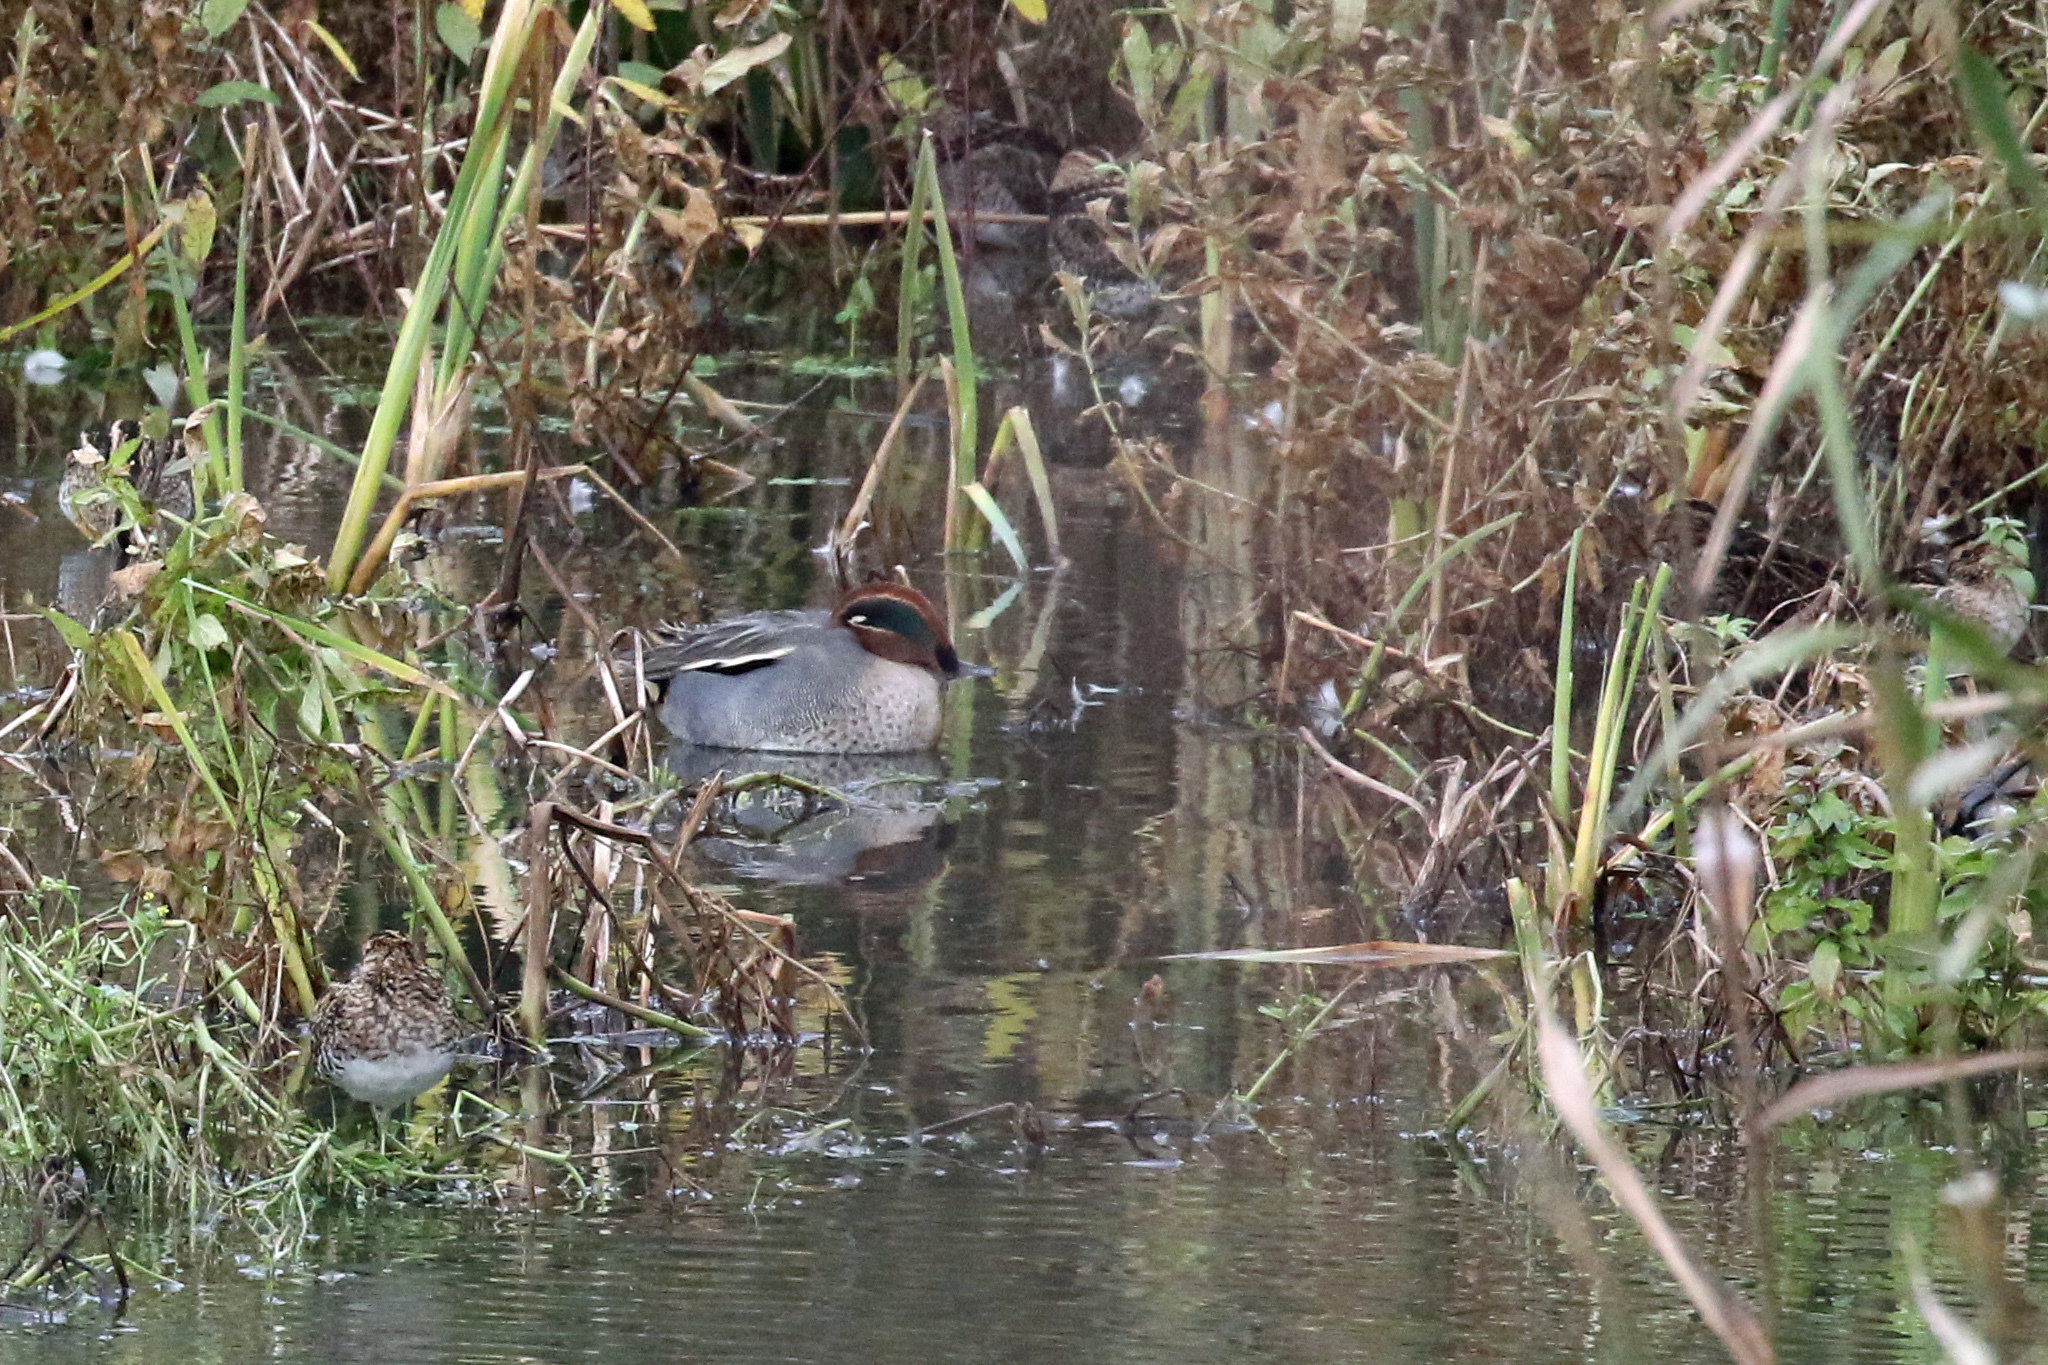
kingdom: Animalia
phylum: Chordata
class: Aves
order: Anseriformes
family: Anatidae
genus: Anas
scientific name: Anas crecca
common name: Eurasian teal
